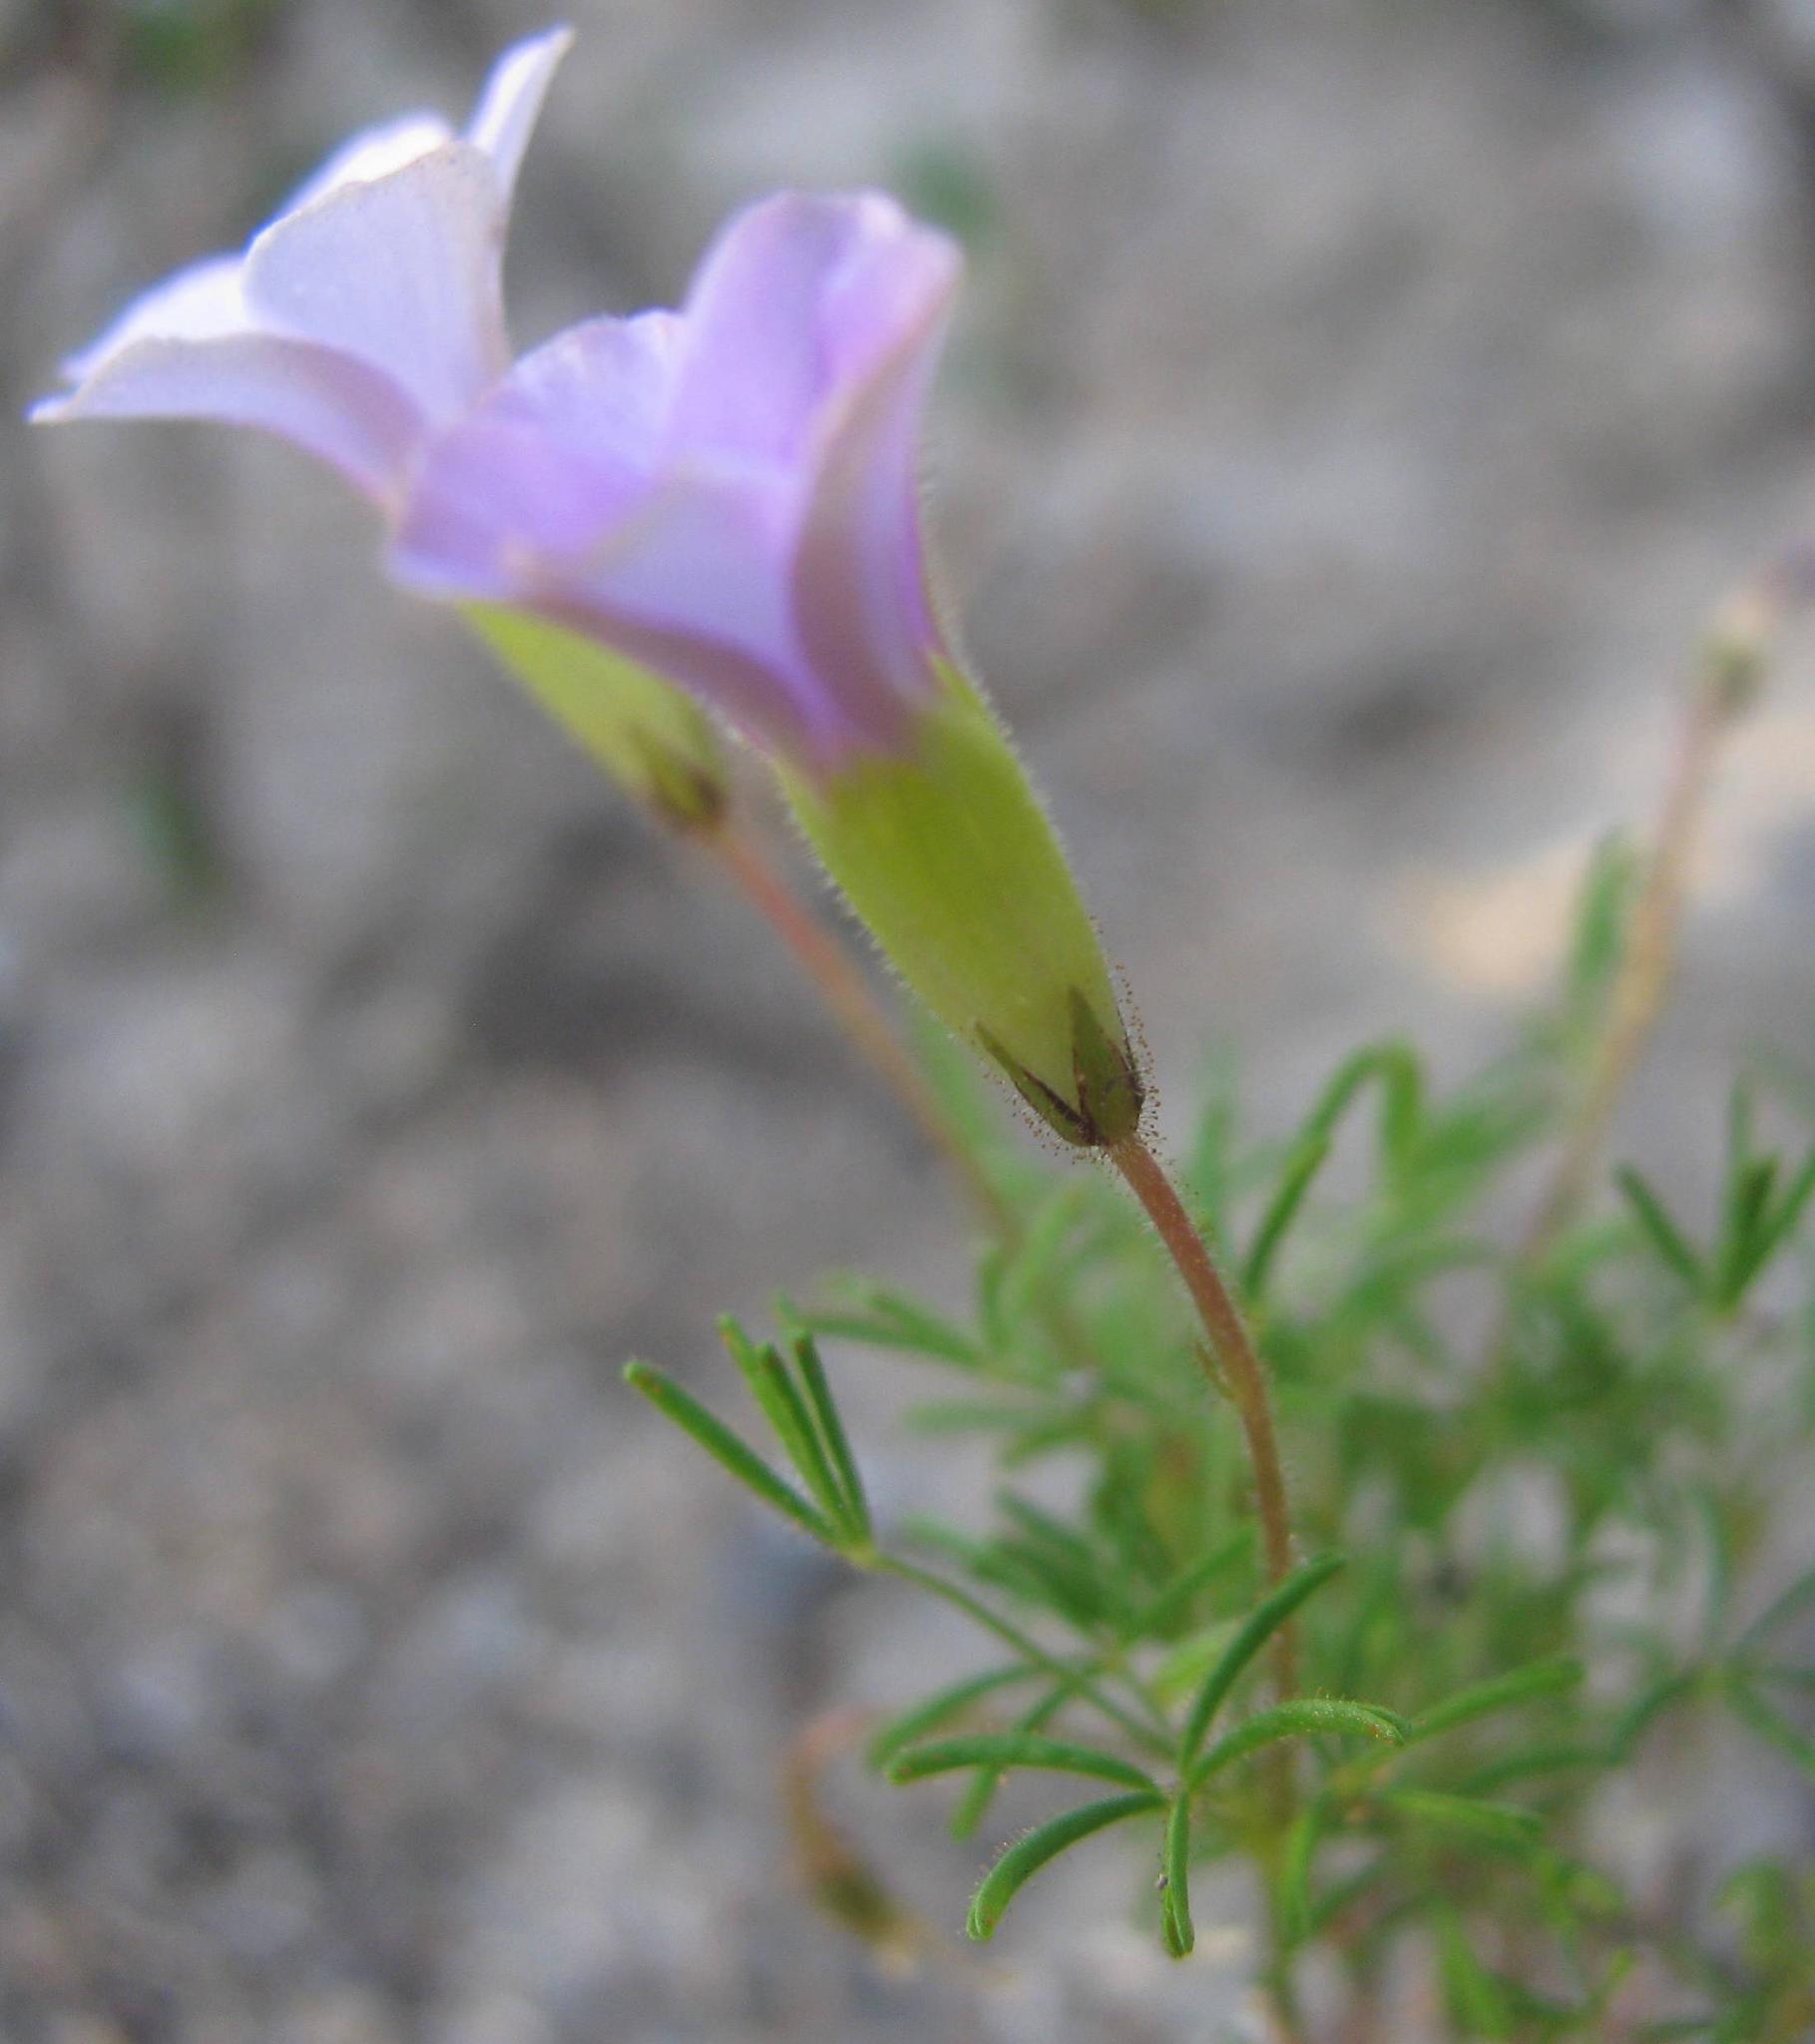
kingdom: Plantae
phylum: Tracheophyta
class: Magnoliopsida
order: Oxalidales
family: Oxalidaceae
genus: Oxalis
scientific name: Oxalis engleriana
